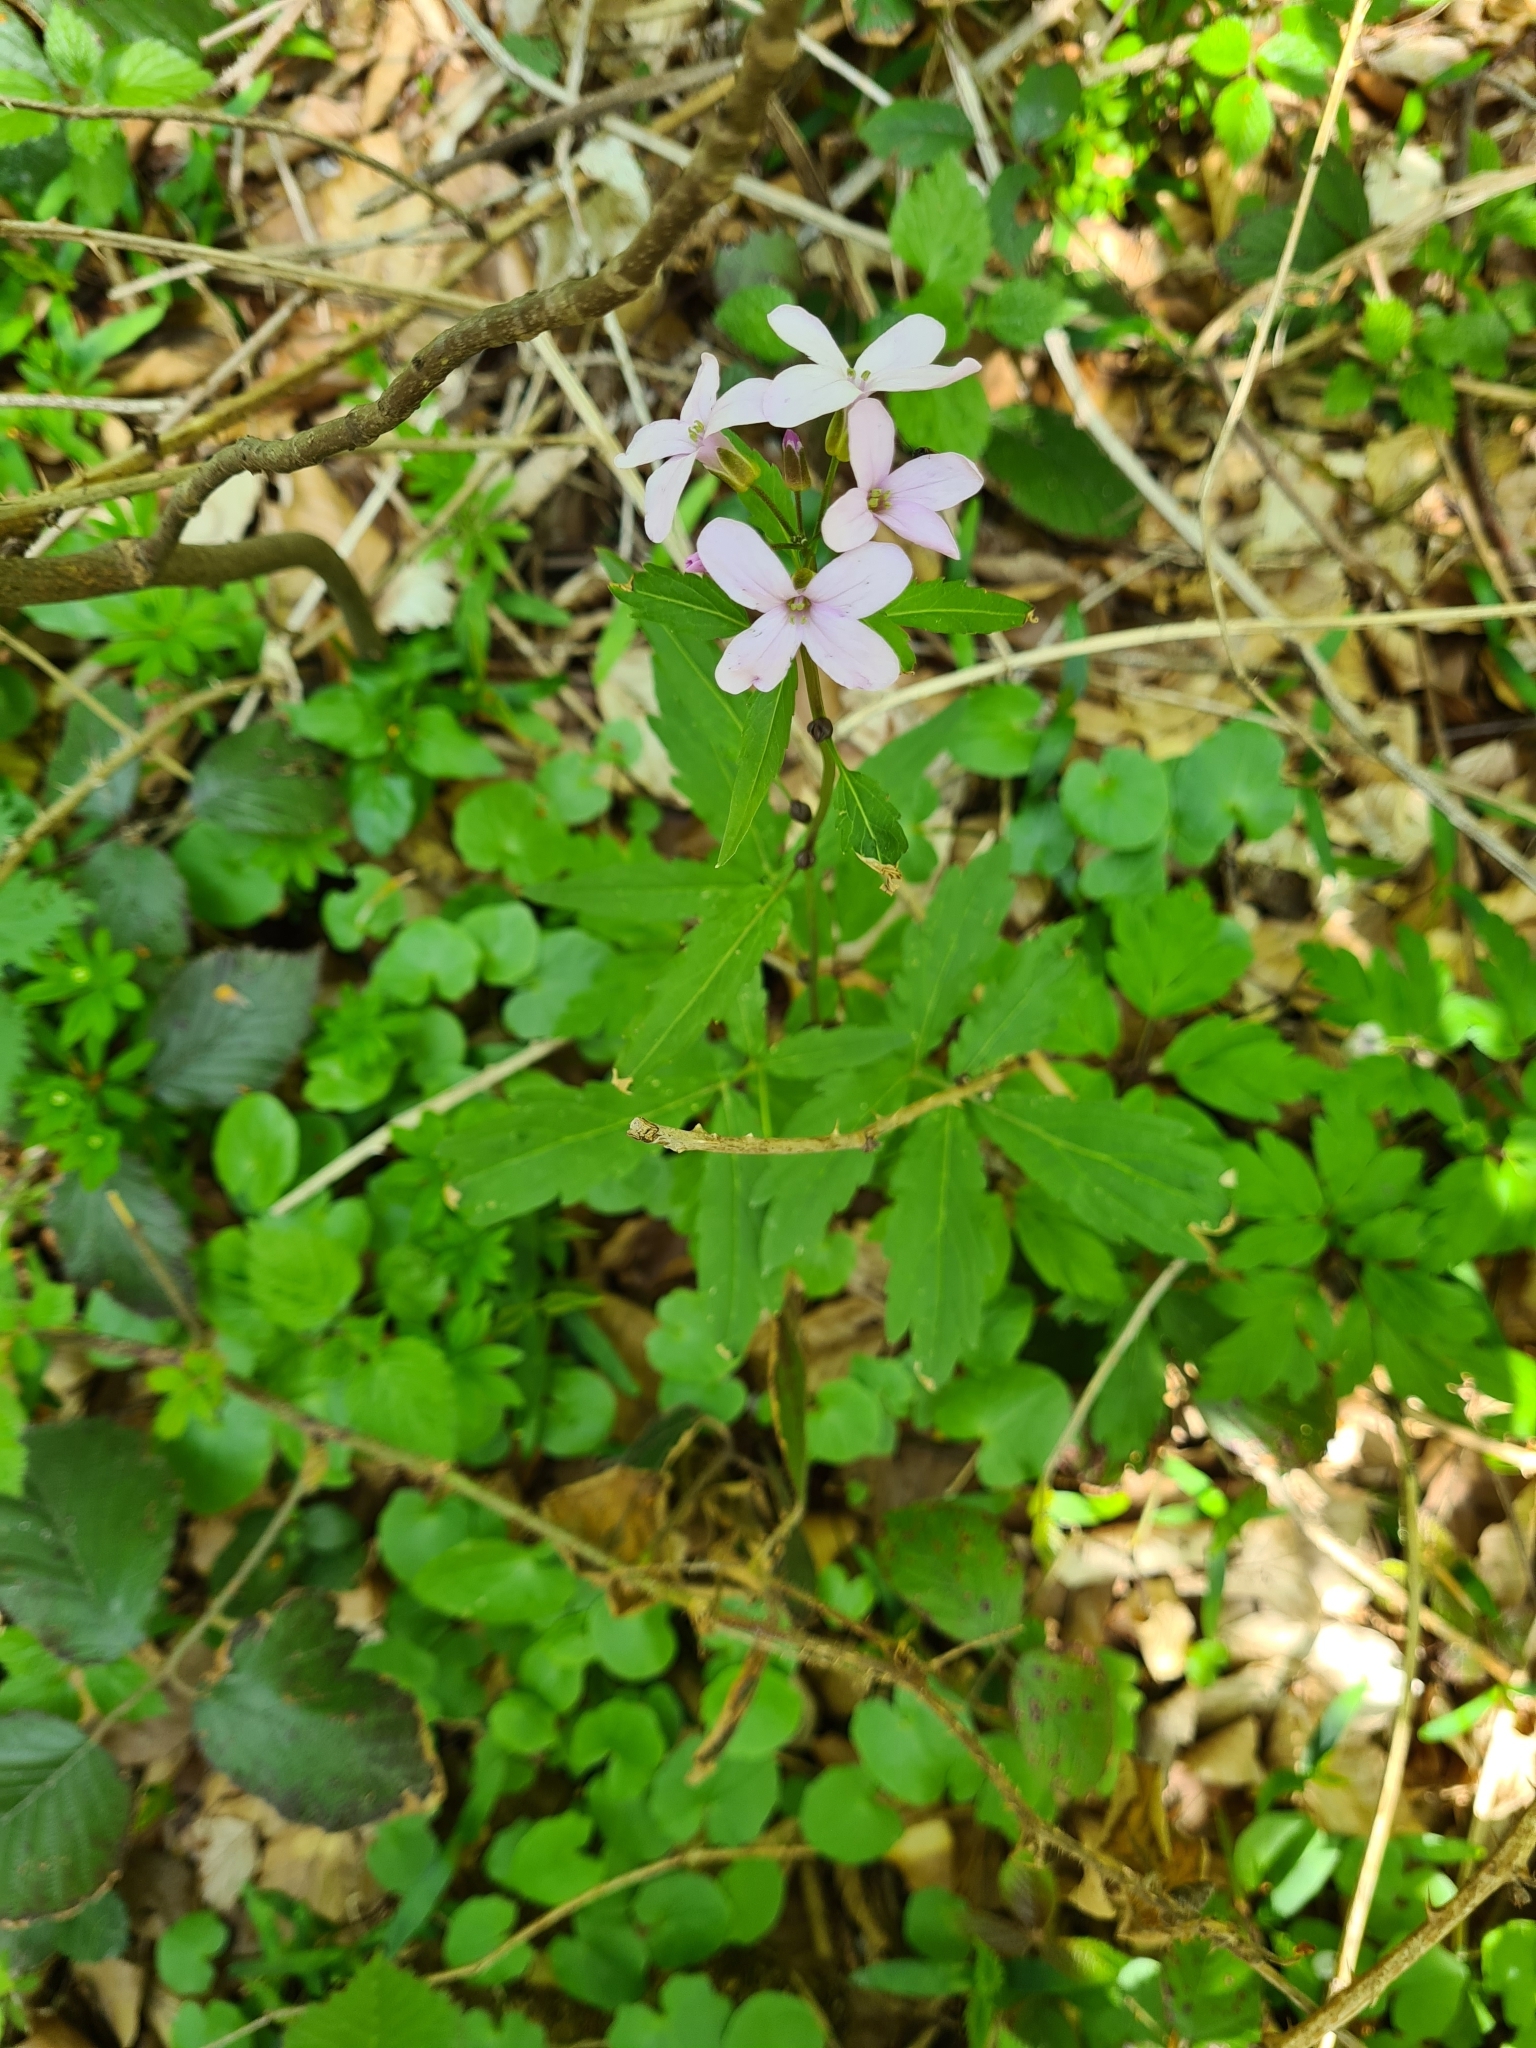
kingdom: Plantae
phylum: Tracheophyta
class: Magnoliopsida
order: Brassicales
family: Brassicaceae
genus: Cardamine
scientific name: Cardamine bulbifera
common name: Coralroot bittercress
